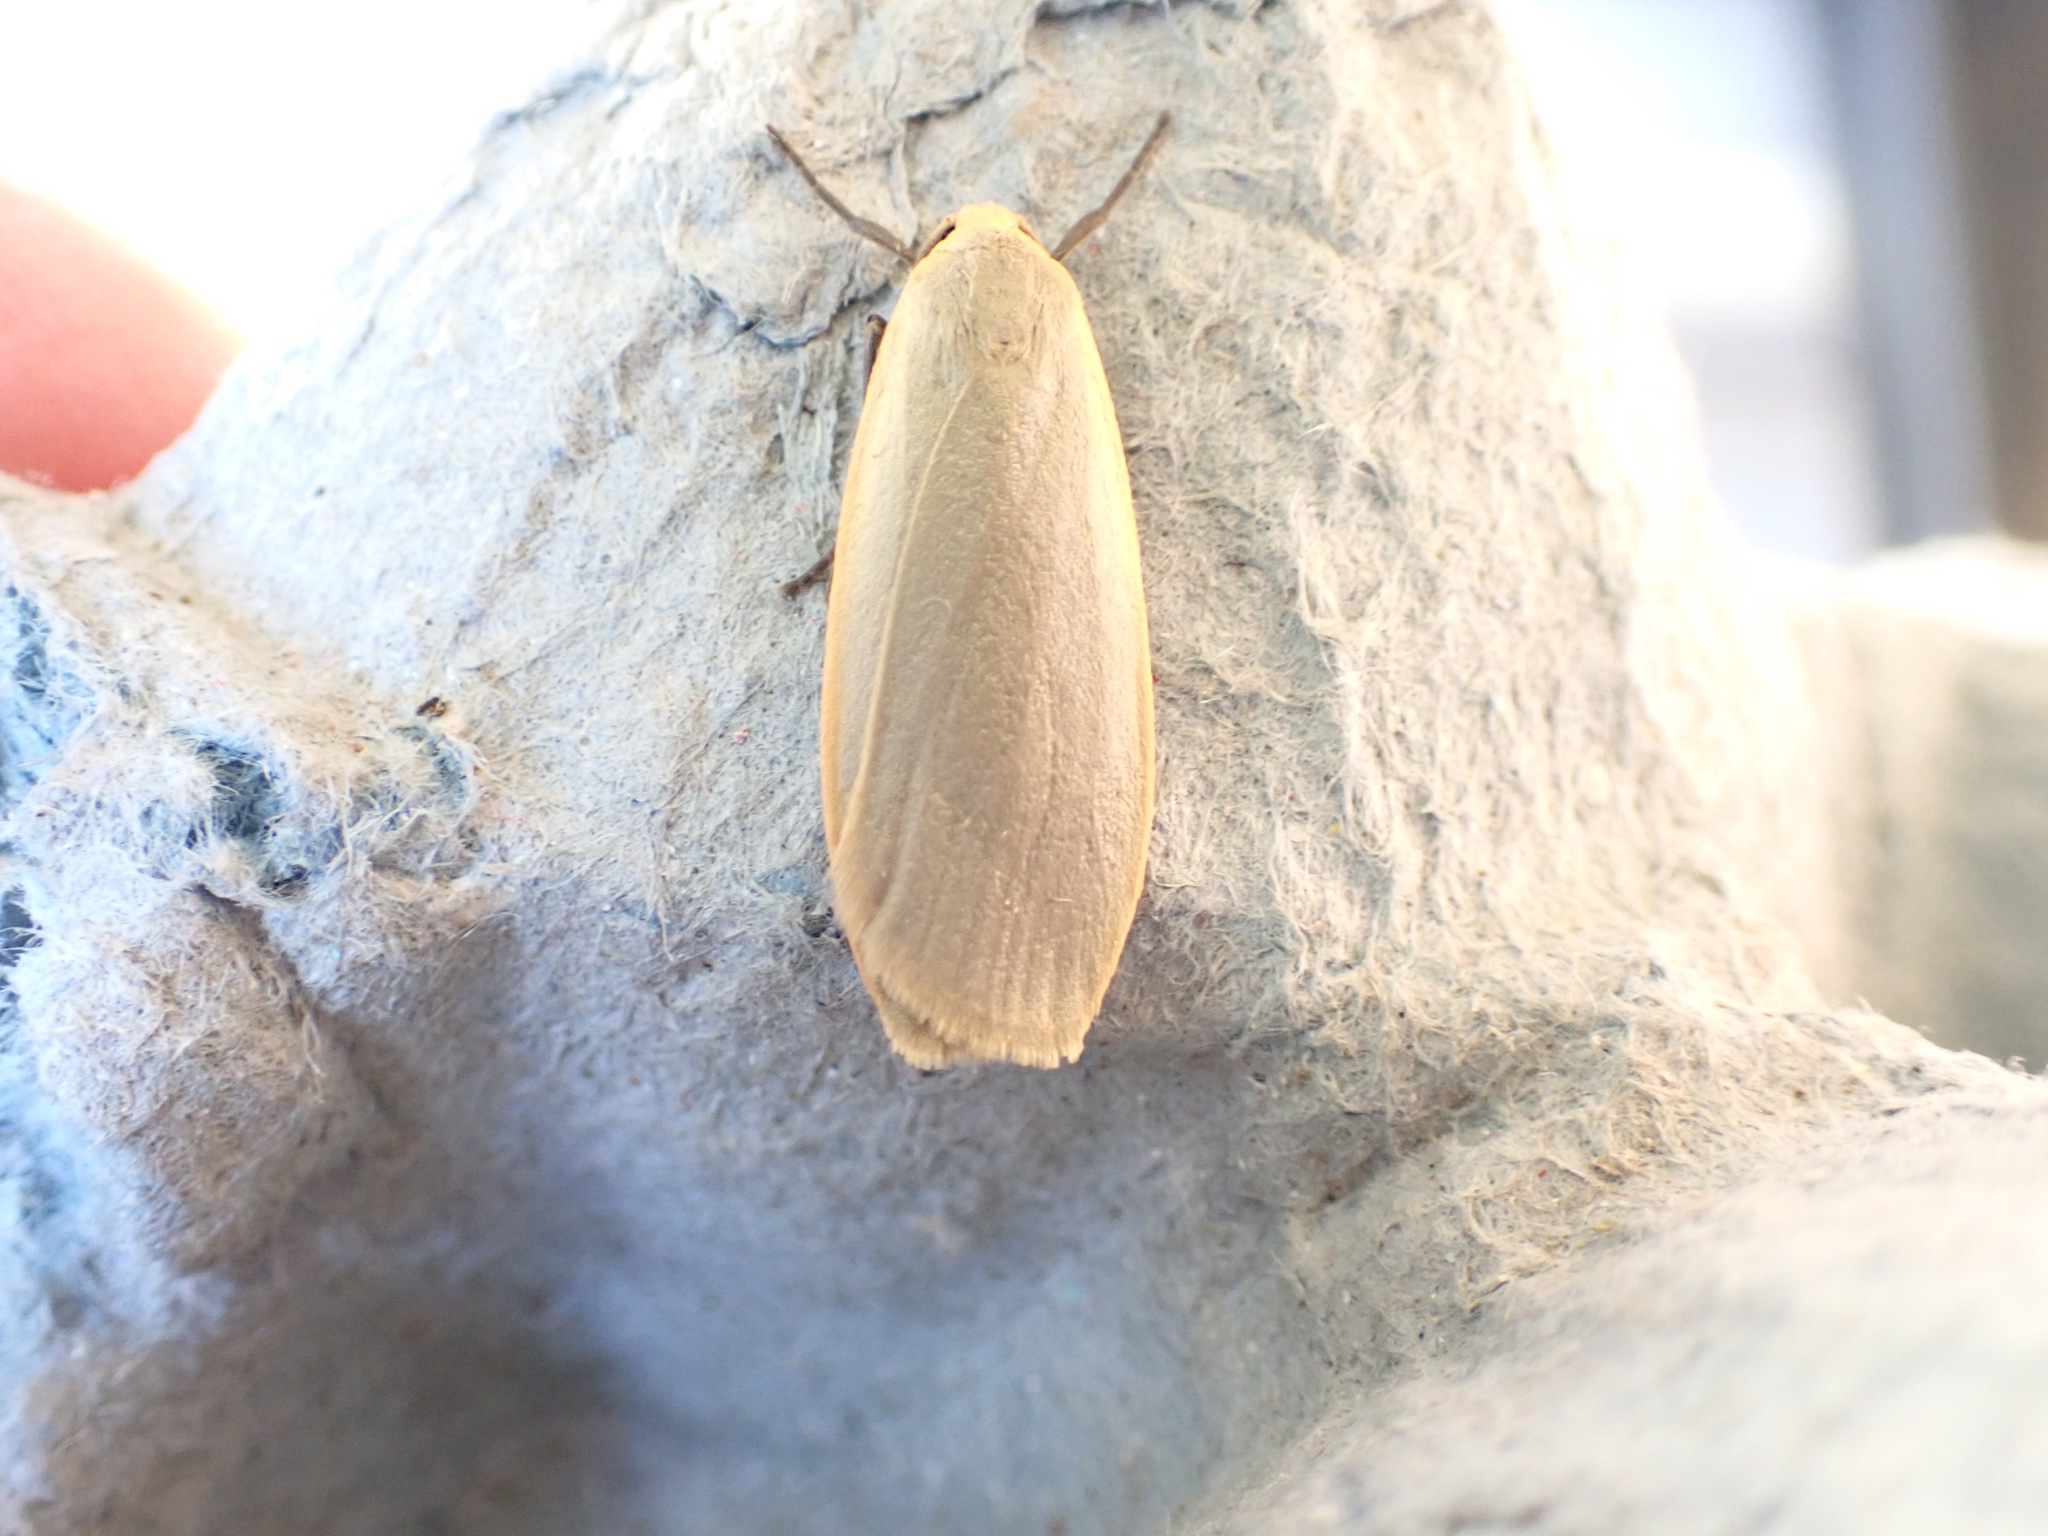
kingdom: Animalia
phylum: Arthropoda
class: Insecta
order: Lepidoptera
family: Erebidae
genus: Collita
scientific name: Collita griseola
